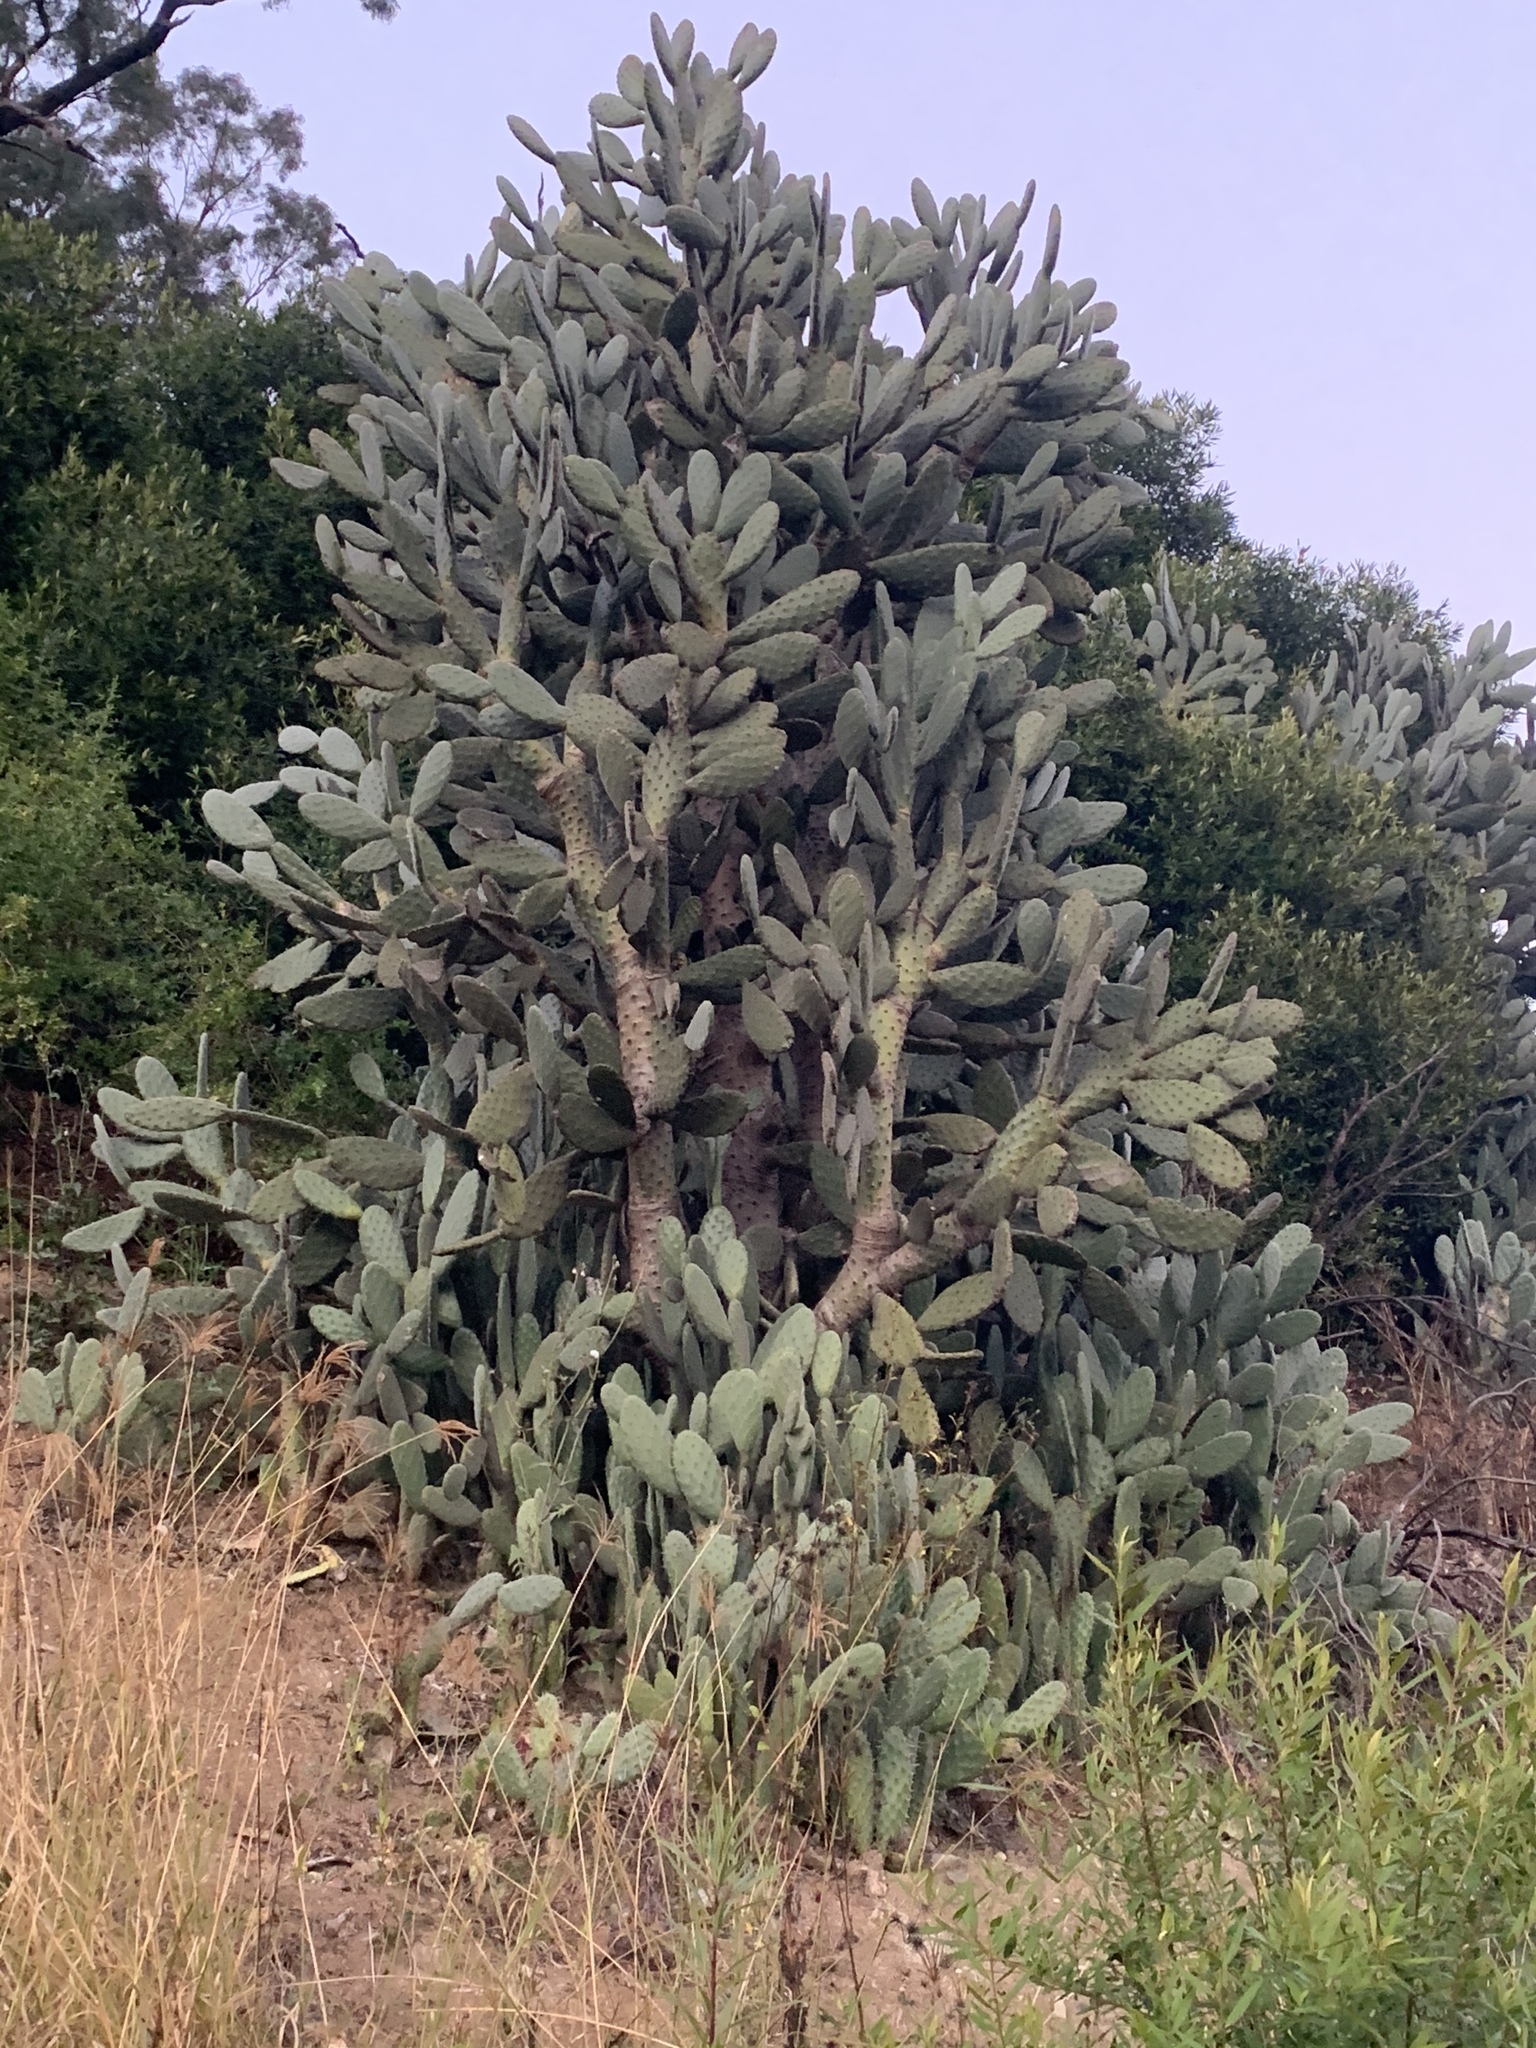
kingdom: Plantae
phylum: Tracheophyta
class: Magnoliopsida
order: Caryophyllales
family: Cactaceae
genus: Opuntia
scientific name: Opuntia tomentosa
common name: Woollyjoint pricklypear
